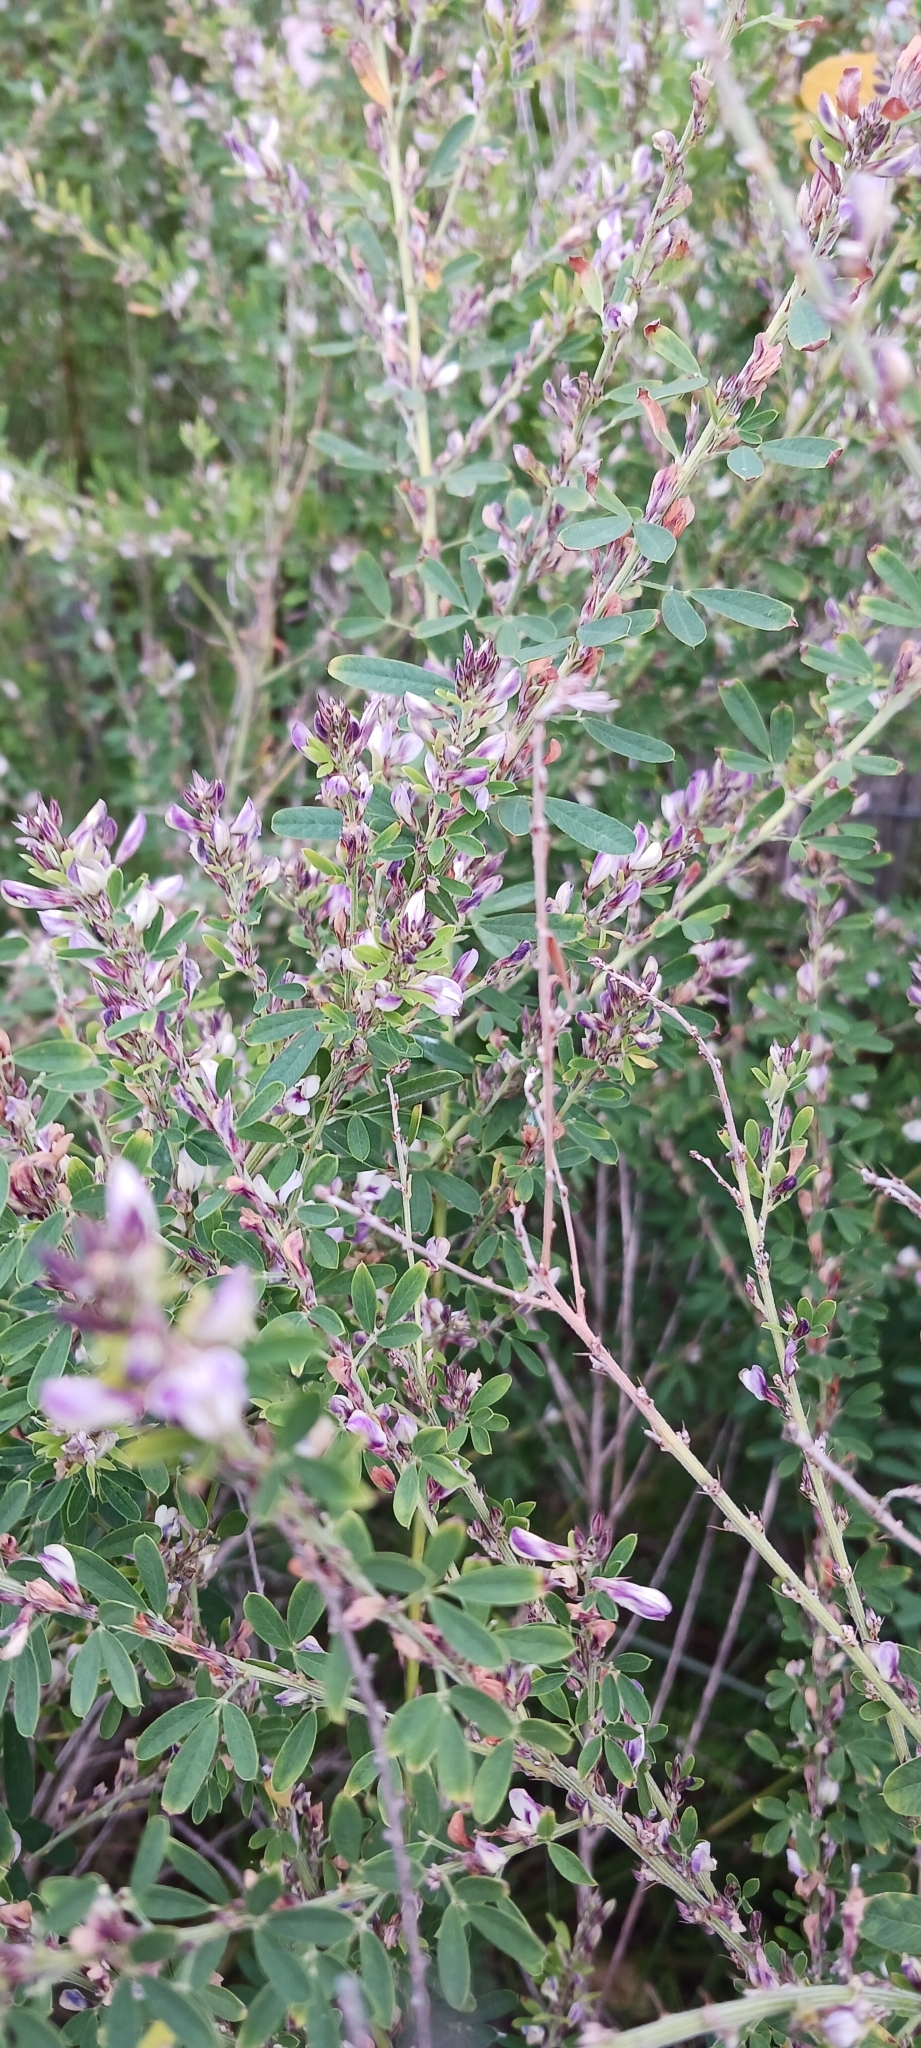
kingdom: Plantae
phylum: Tracheophyta
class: Magnoliopsida
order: Fabales
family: Fabaceae
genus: Lespedeza
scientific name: Lespedeza cuneata
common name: Chinese bush-clover
